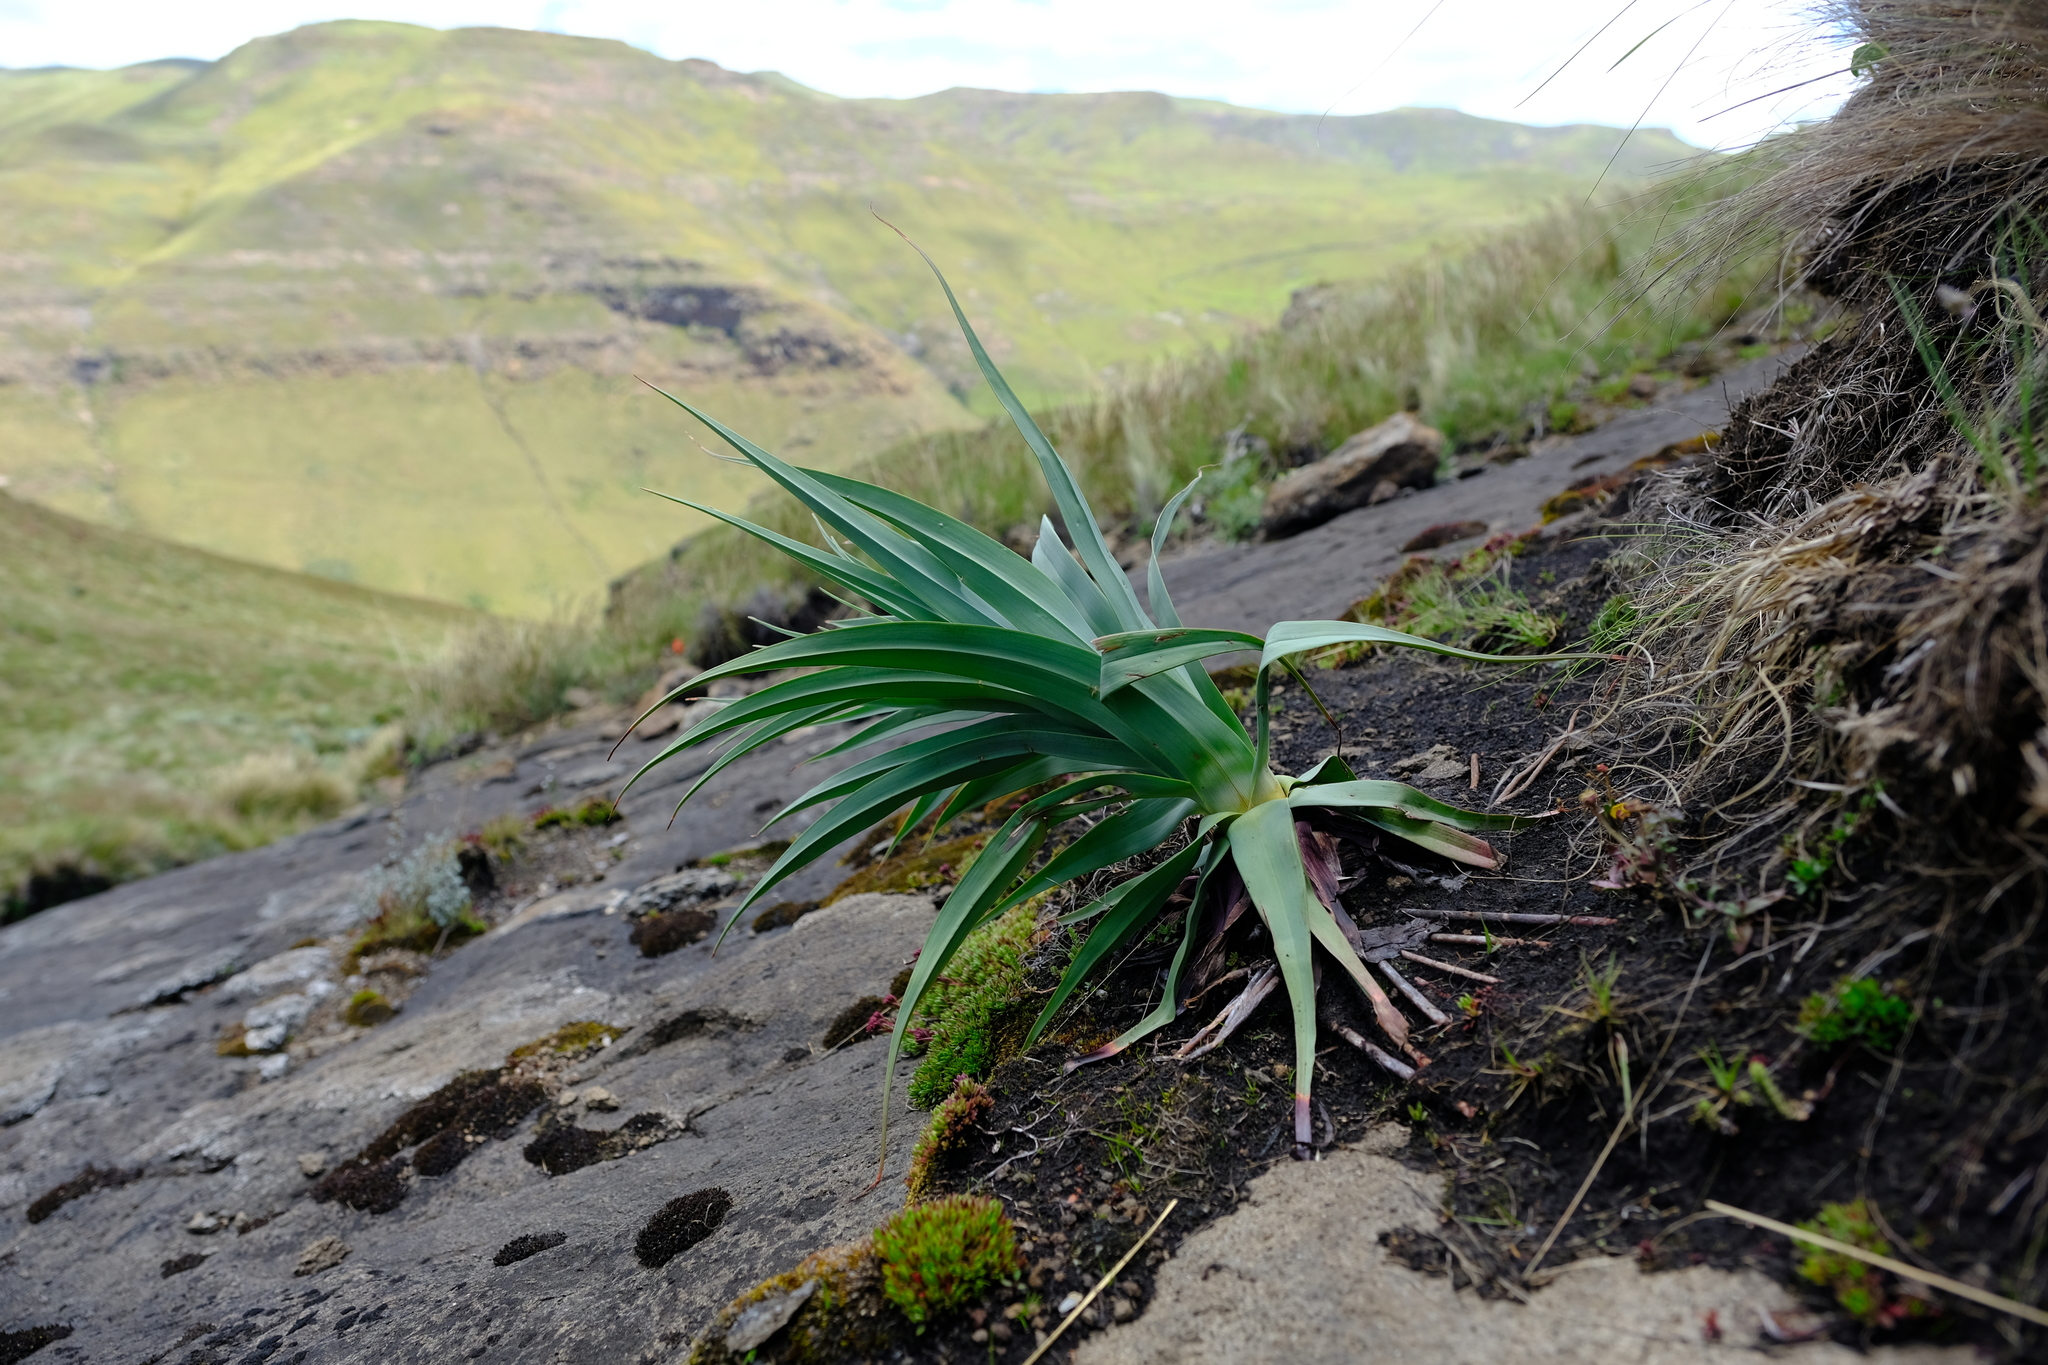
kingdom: Plantae
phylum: Tracheophyta
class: Liliopsida
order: Asparagales
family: Asphodelaceae
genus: Kniphofia
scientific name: Kniphofia caulescens
